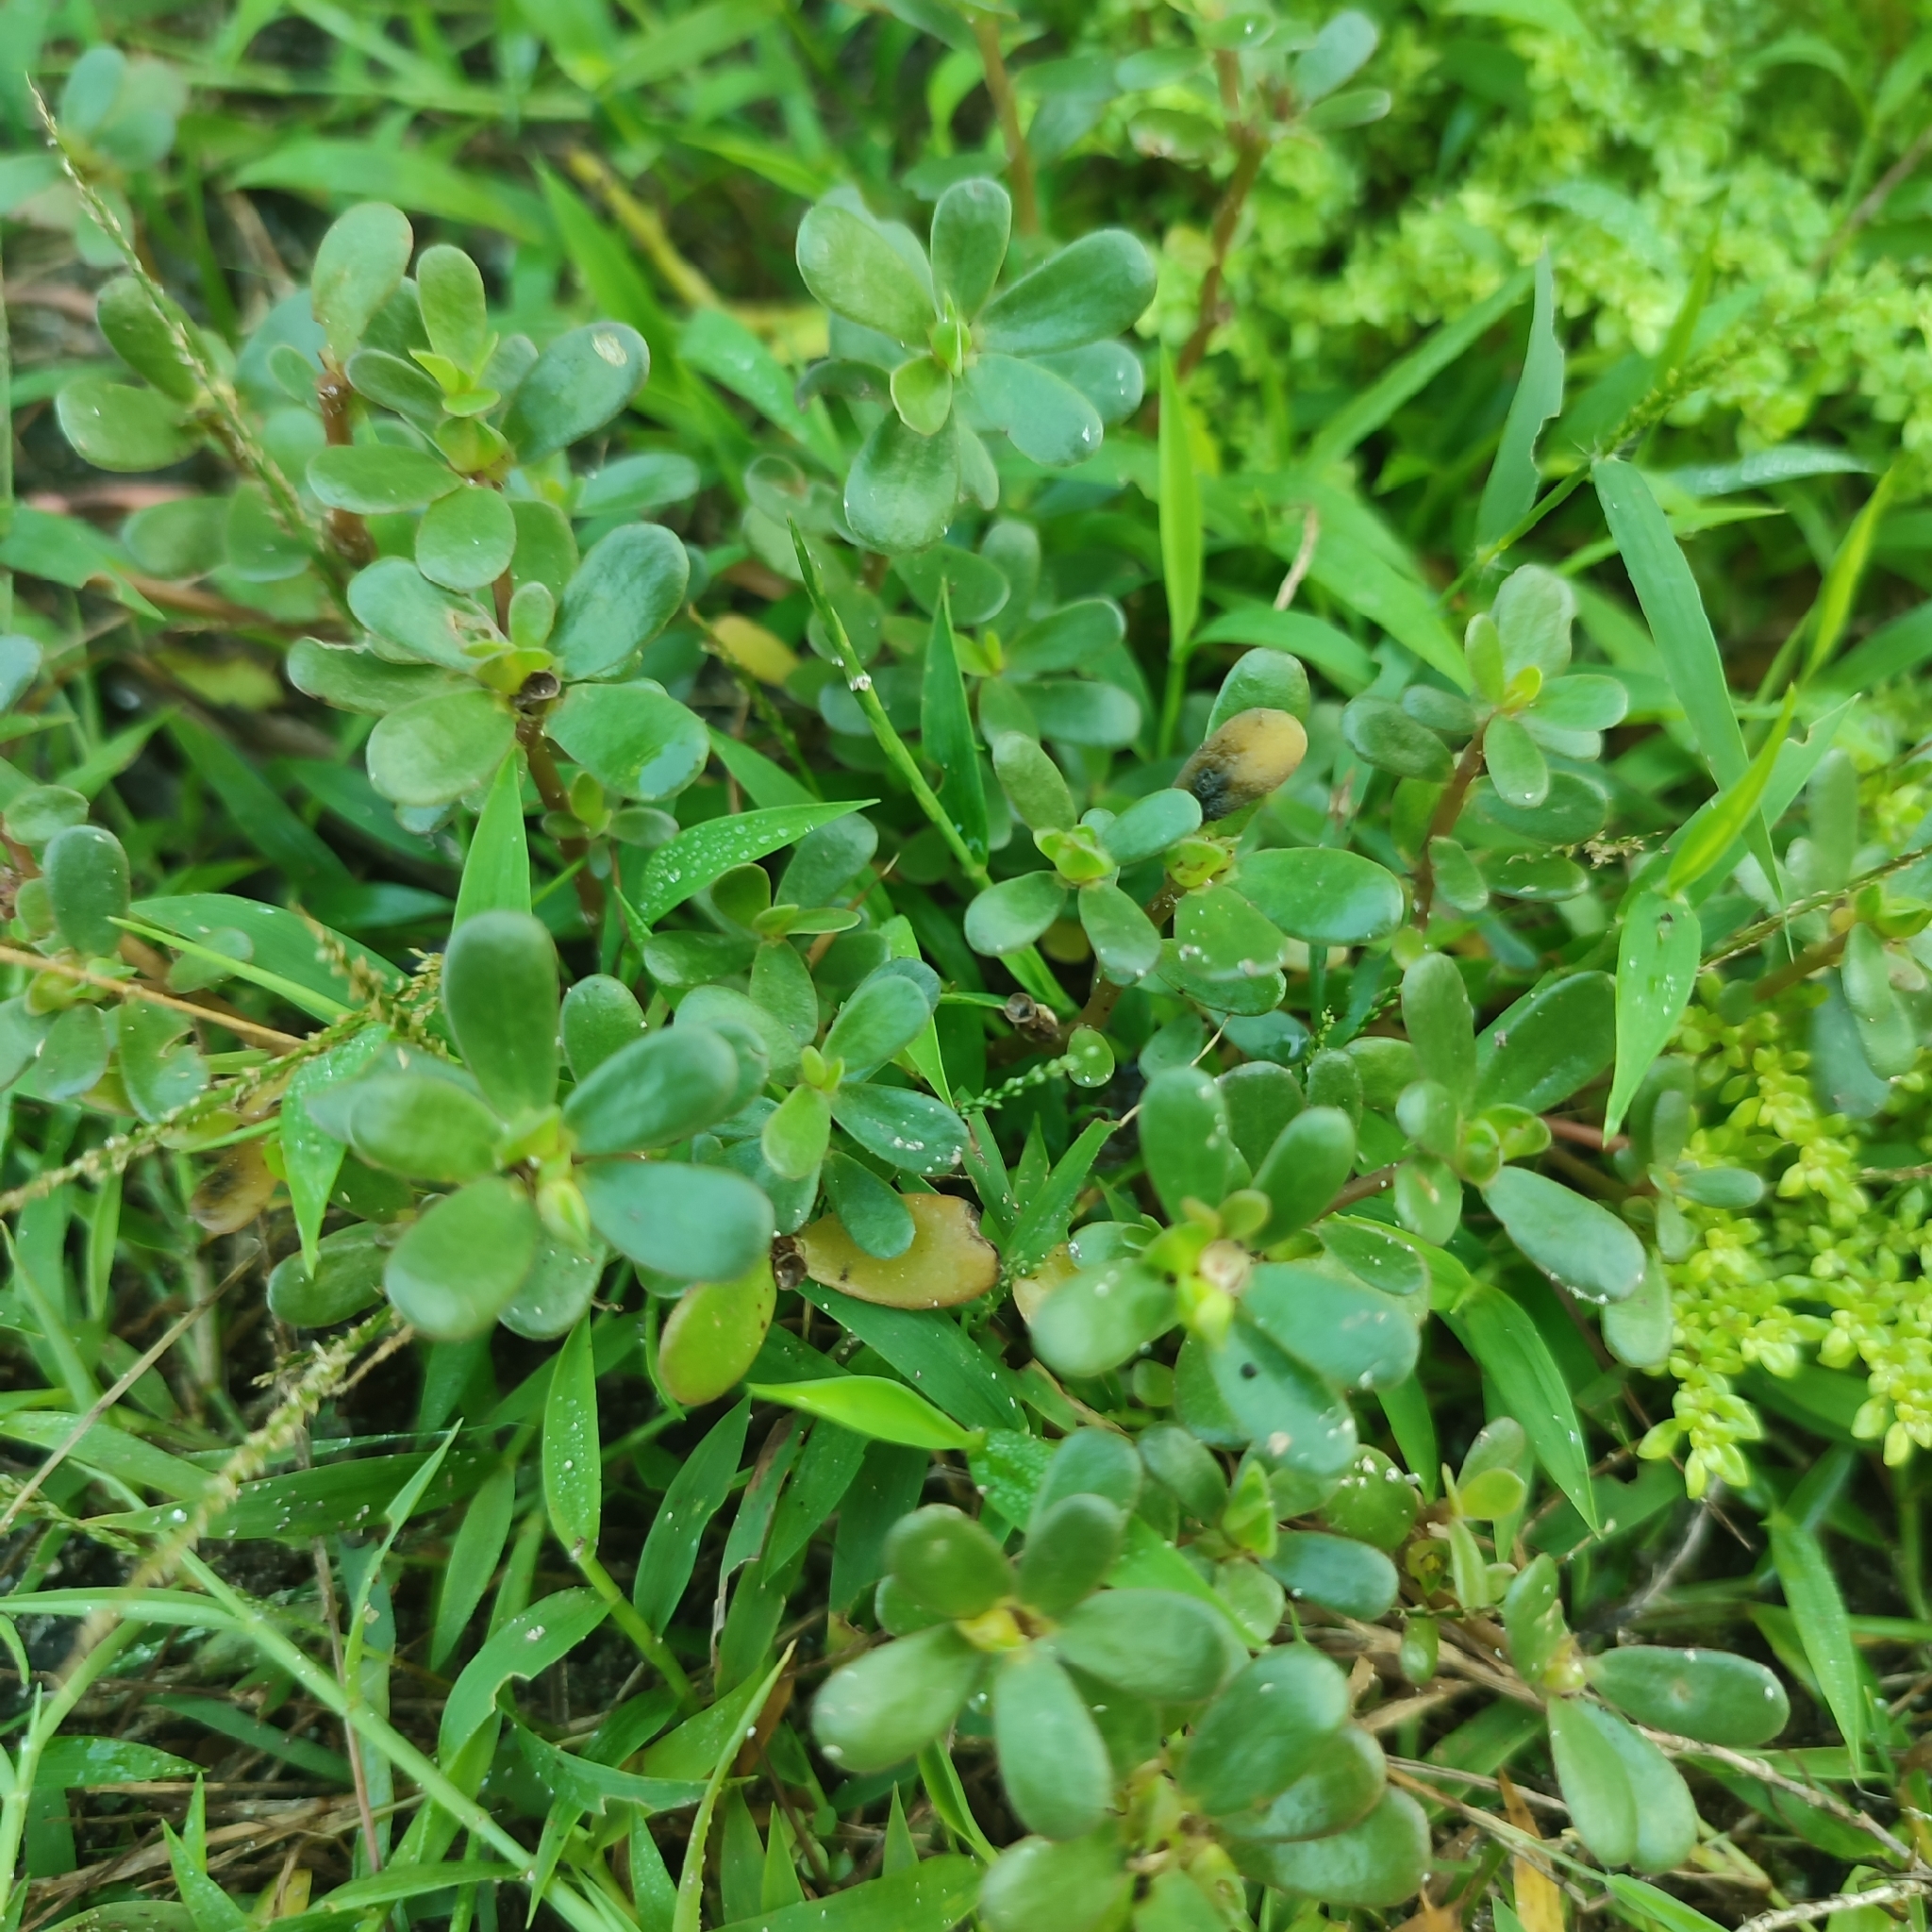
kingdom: Plantae
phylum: Tracheophyta
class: Magnoliopsida
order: Caryophyllales
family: Portulacaceae
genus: Portulaca
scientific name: Portulaca oleracea
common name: Common purslane
